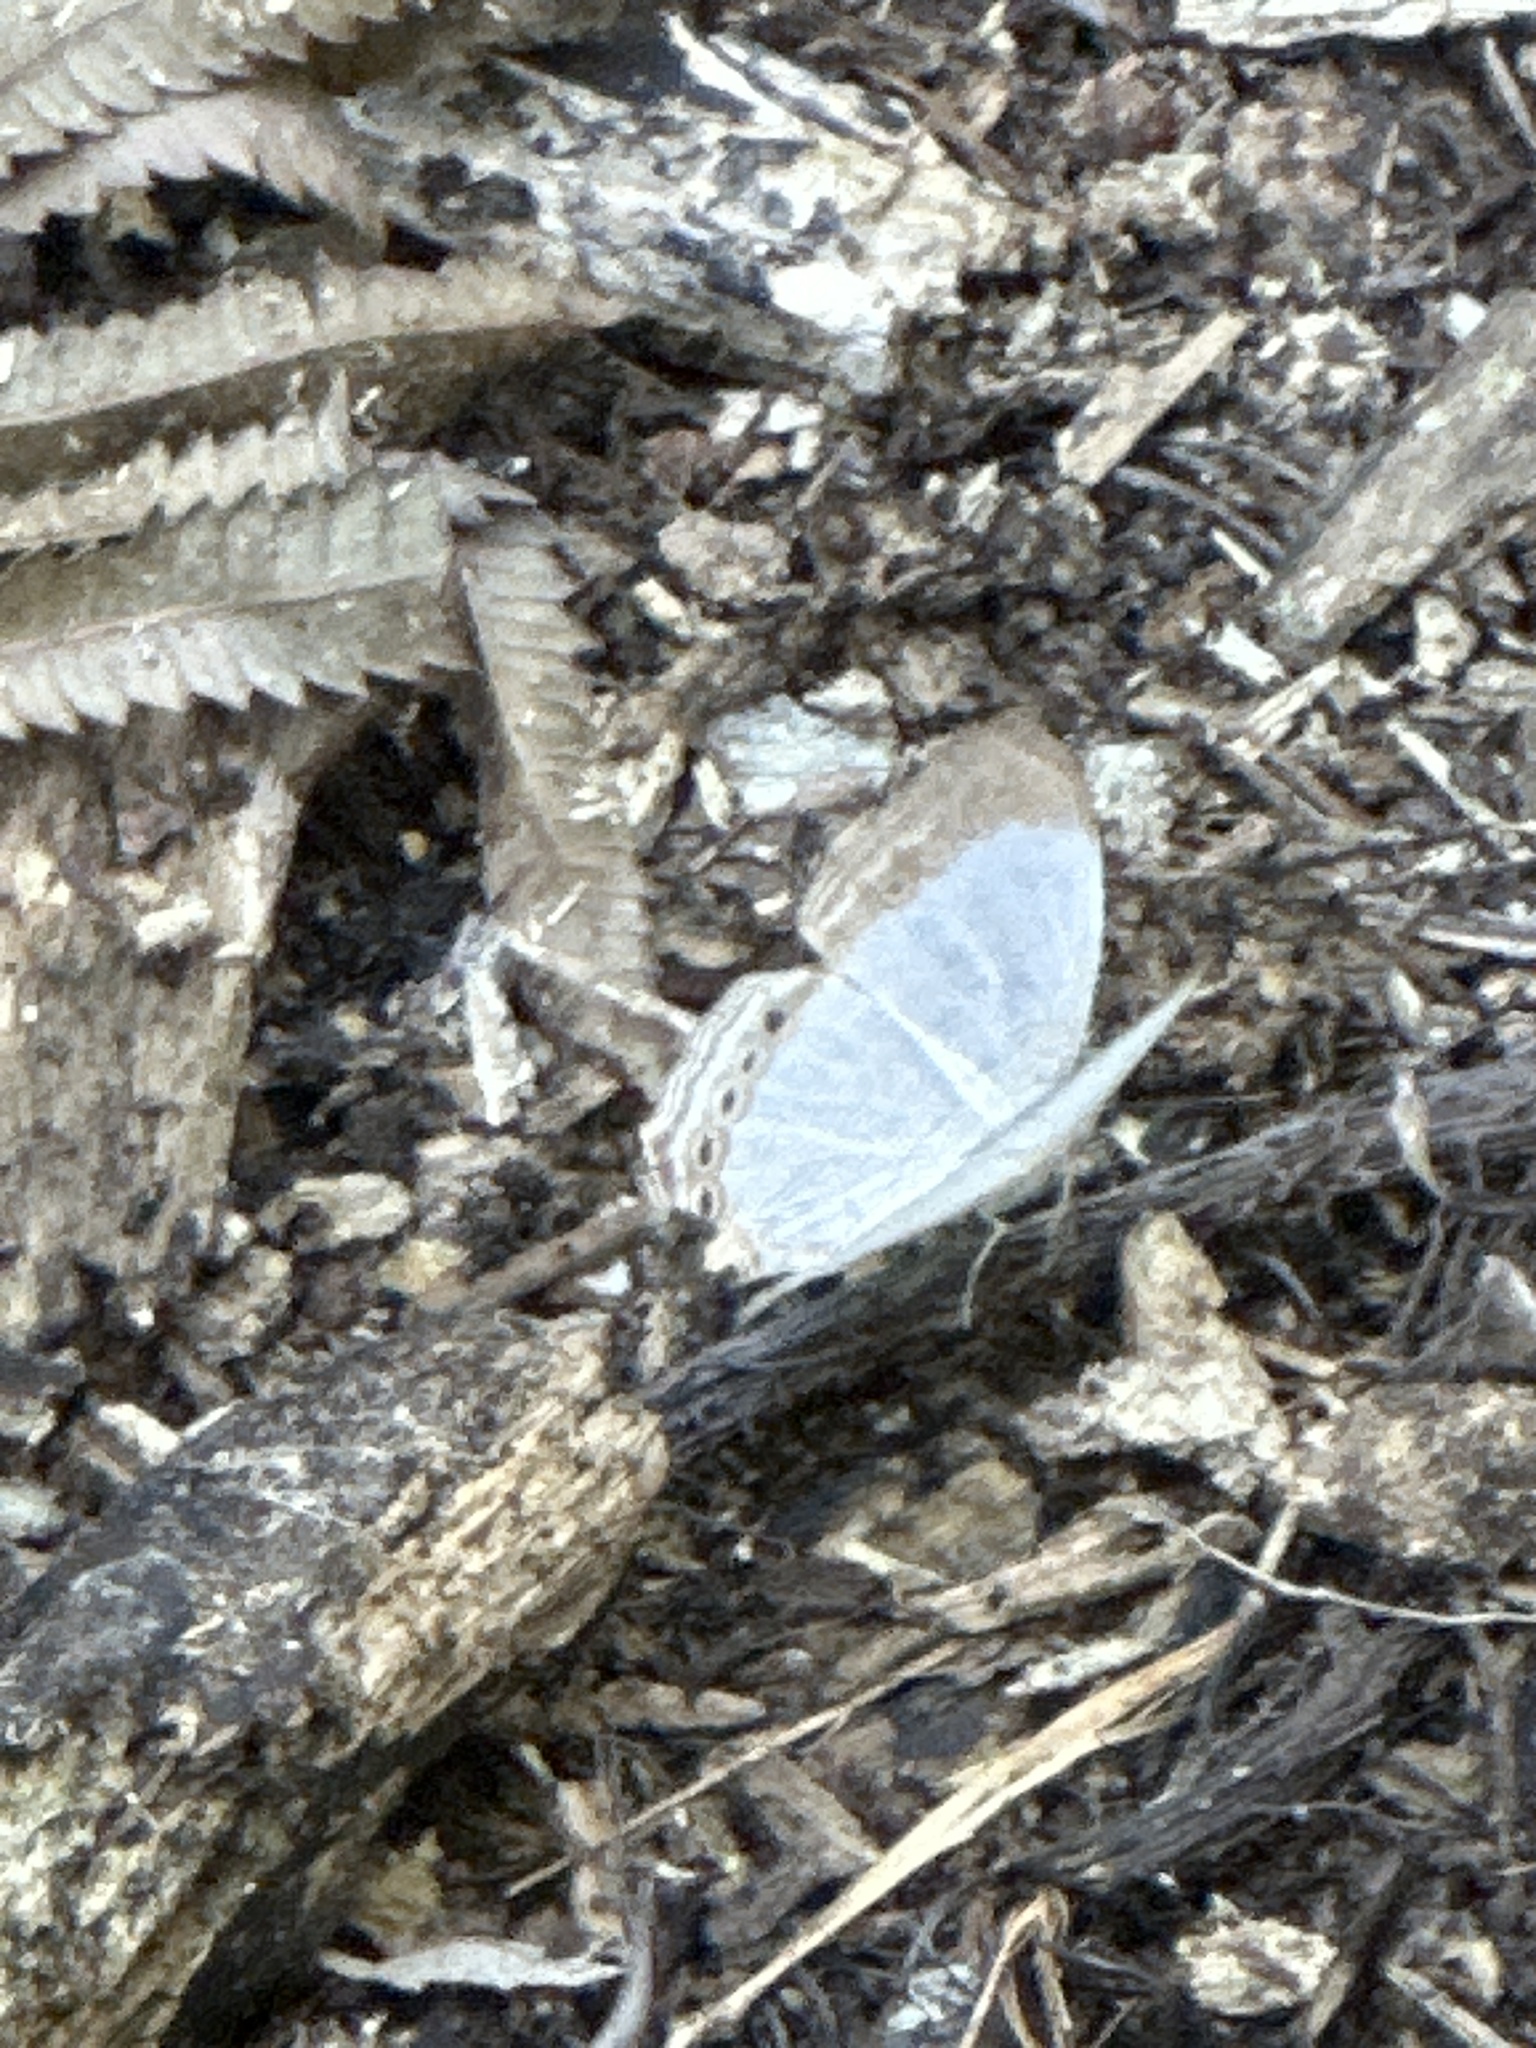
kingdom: Animalia
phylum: Arthropoda
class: Insecta
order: Lepidoptera
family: Nymphalidae
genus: Cyrestis
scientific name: Cyrestis paulinus
